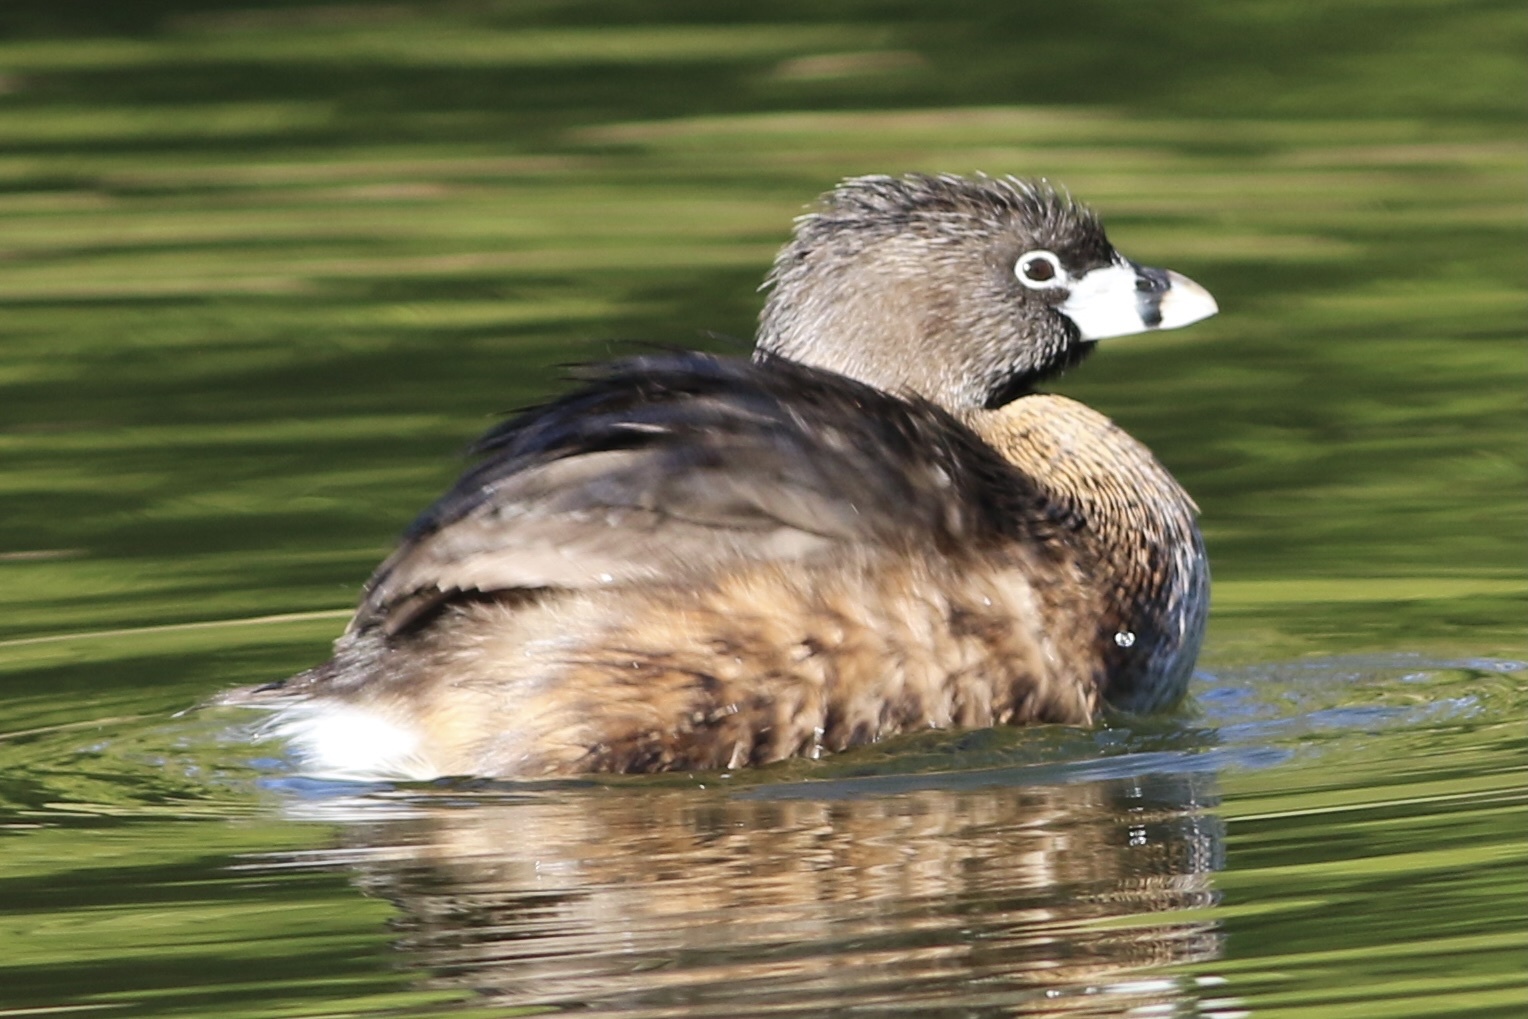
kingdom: Animalia
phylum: Chordata
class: Aves
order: Podicipediformes
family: Podicipedidae
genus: Podilymbus
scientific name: Podilymbus podiceps
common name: Pied-billed grebe
